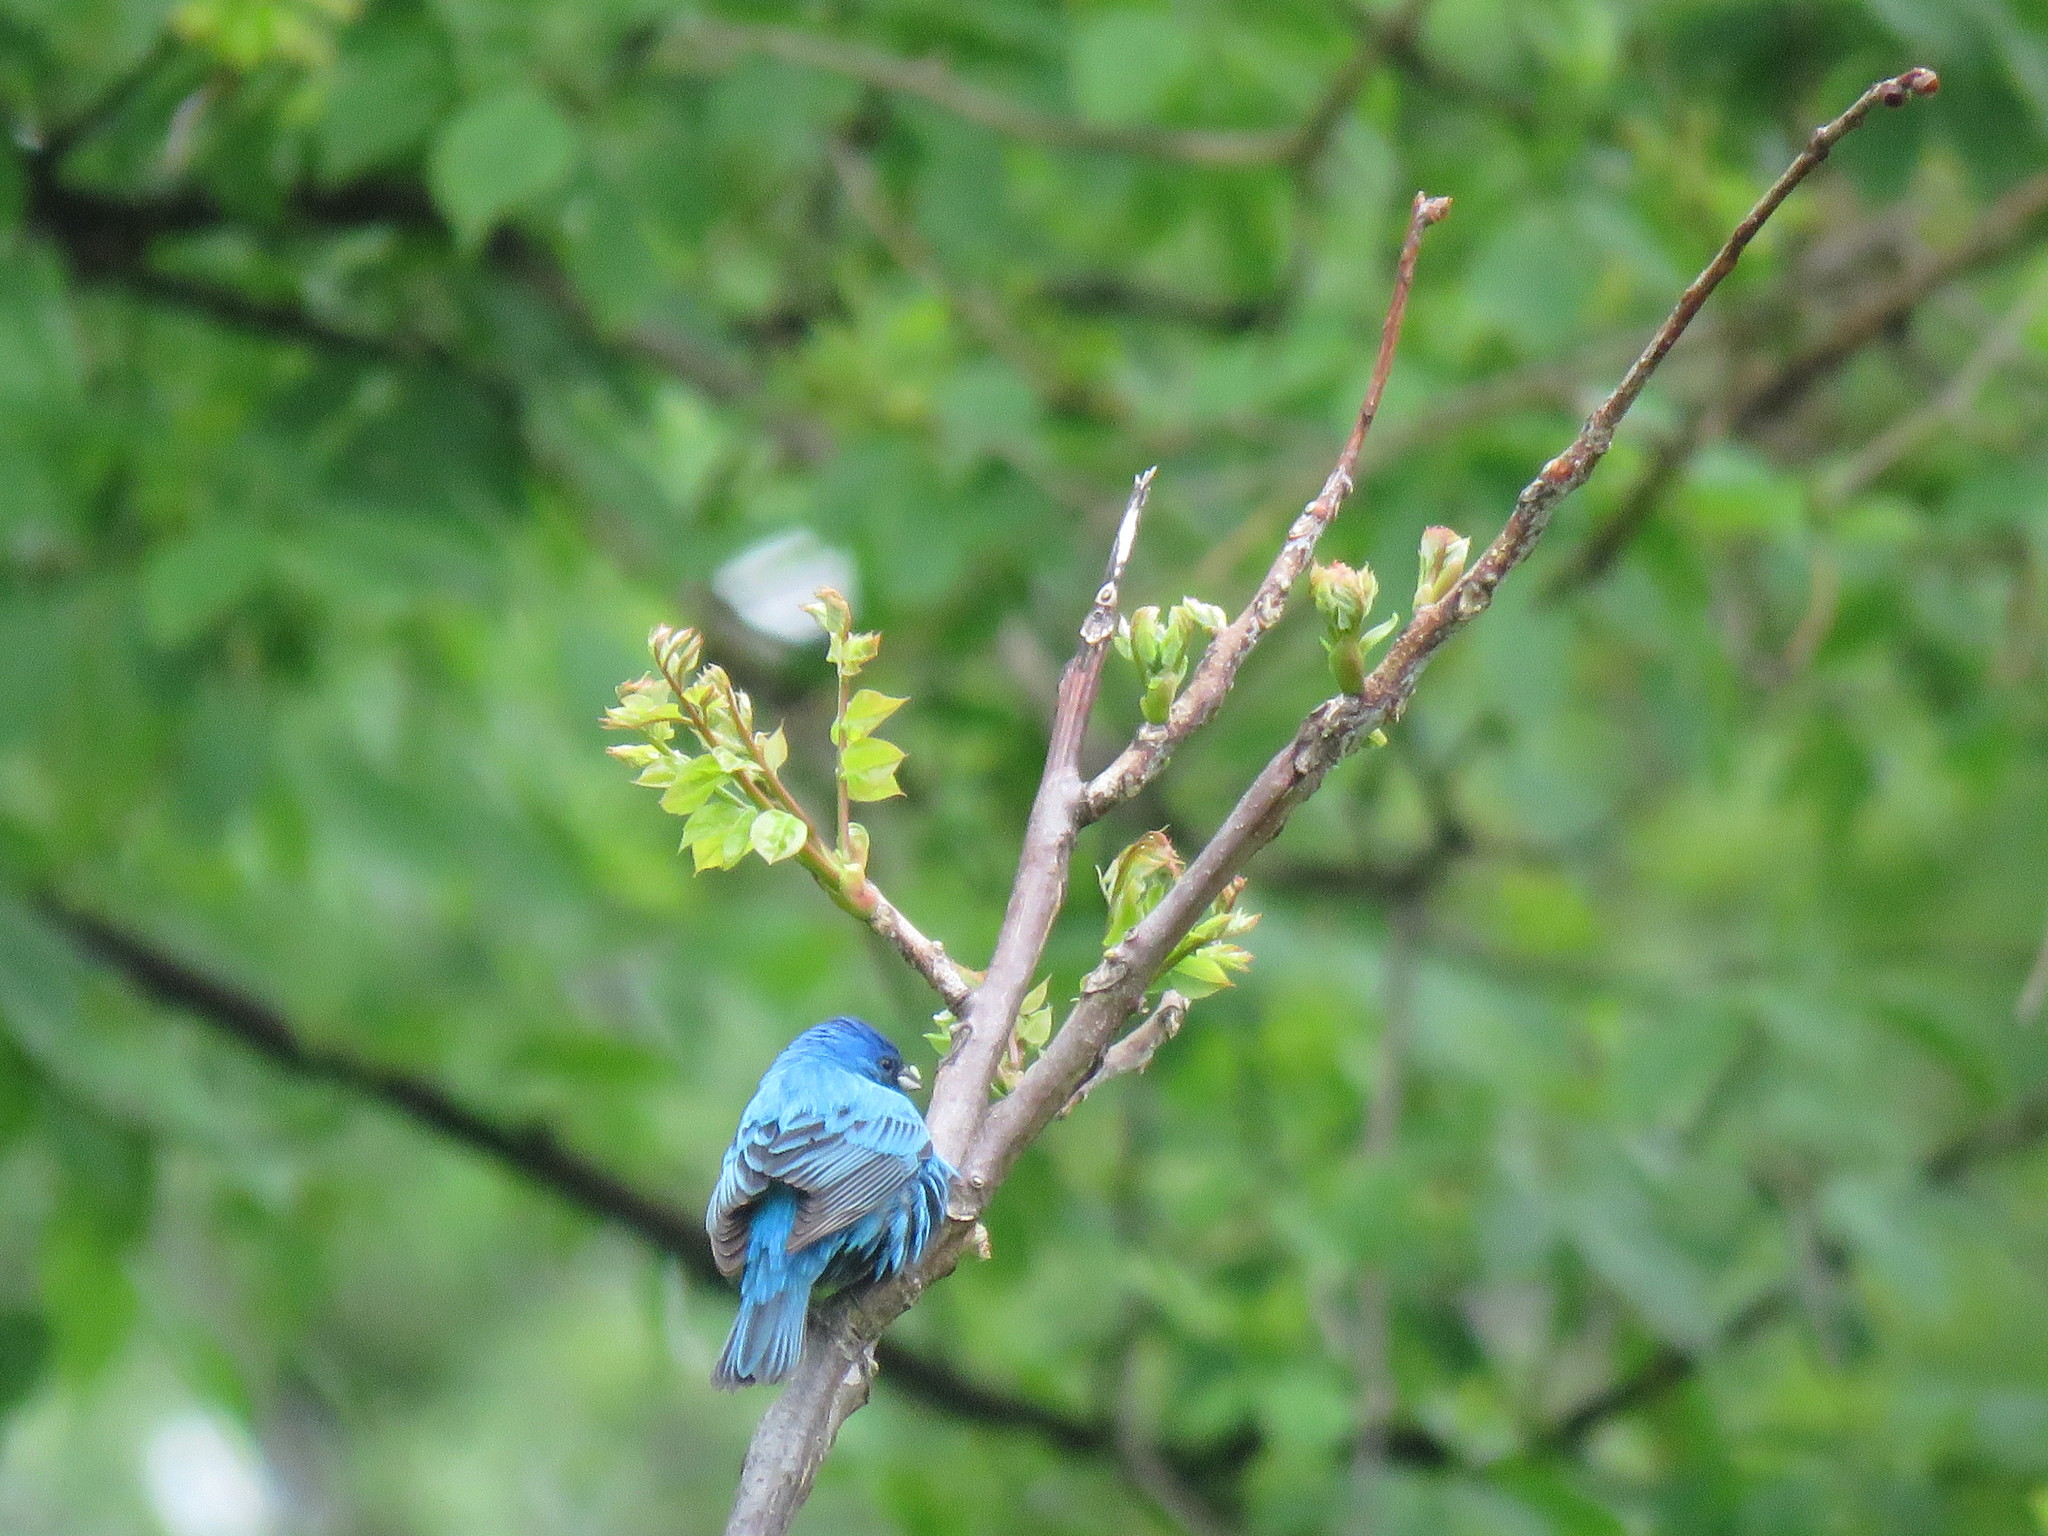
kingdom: Animalia
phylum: Chordata
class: Aves
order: Passeriformes
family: Cardinalidae
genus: Passerina
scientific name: Passerina cyanea
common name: Indigo bunting
